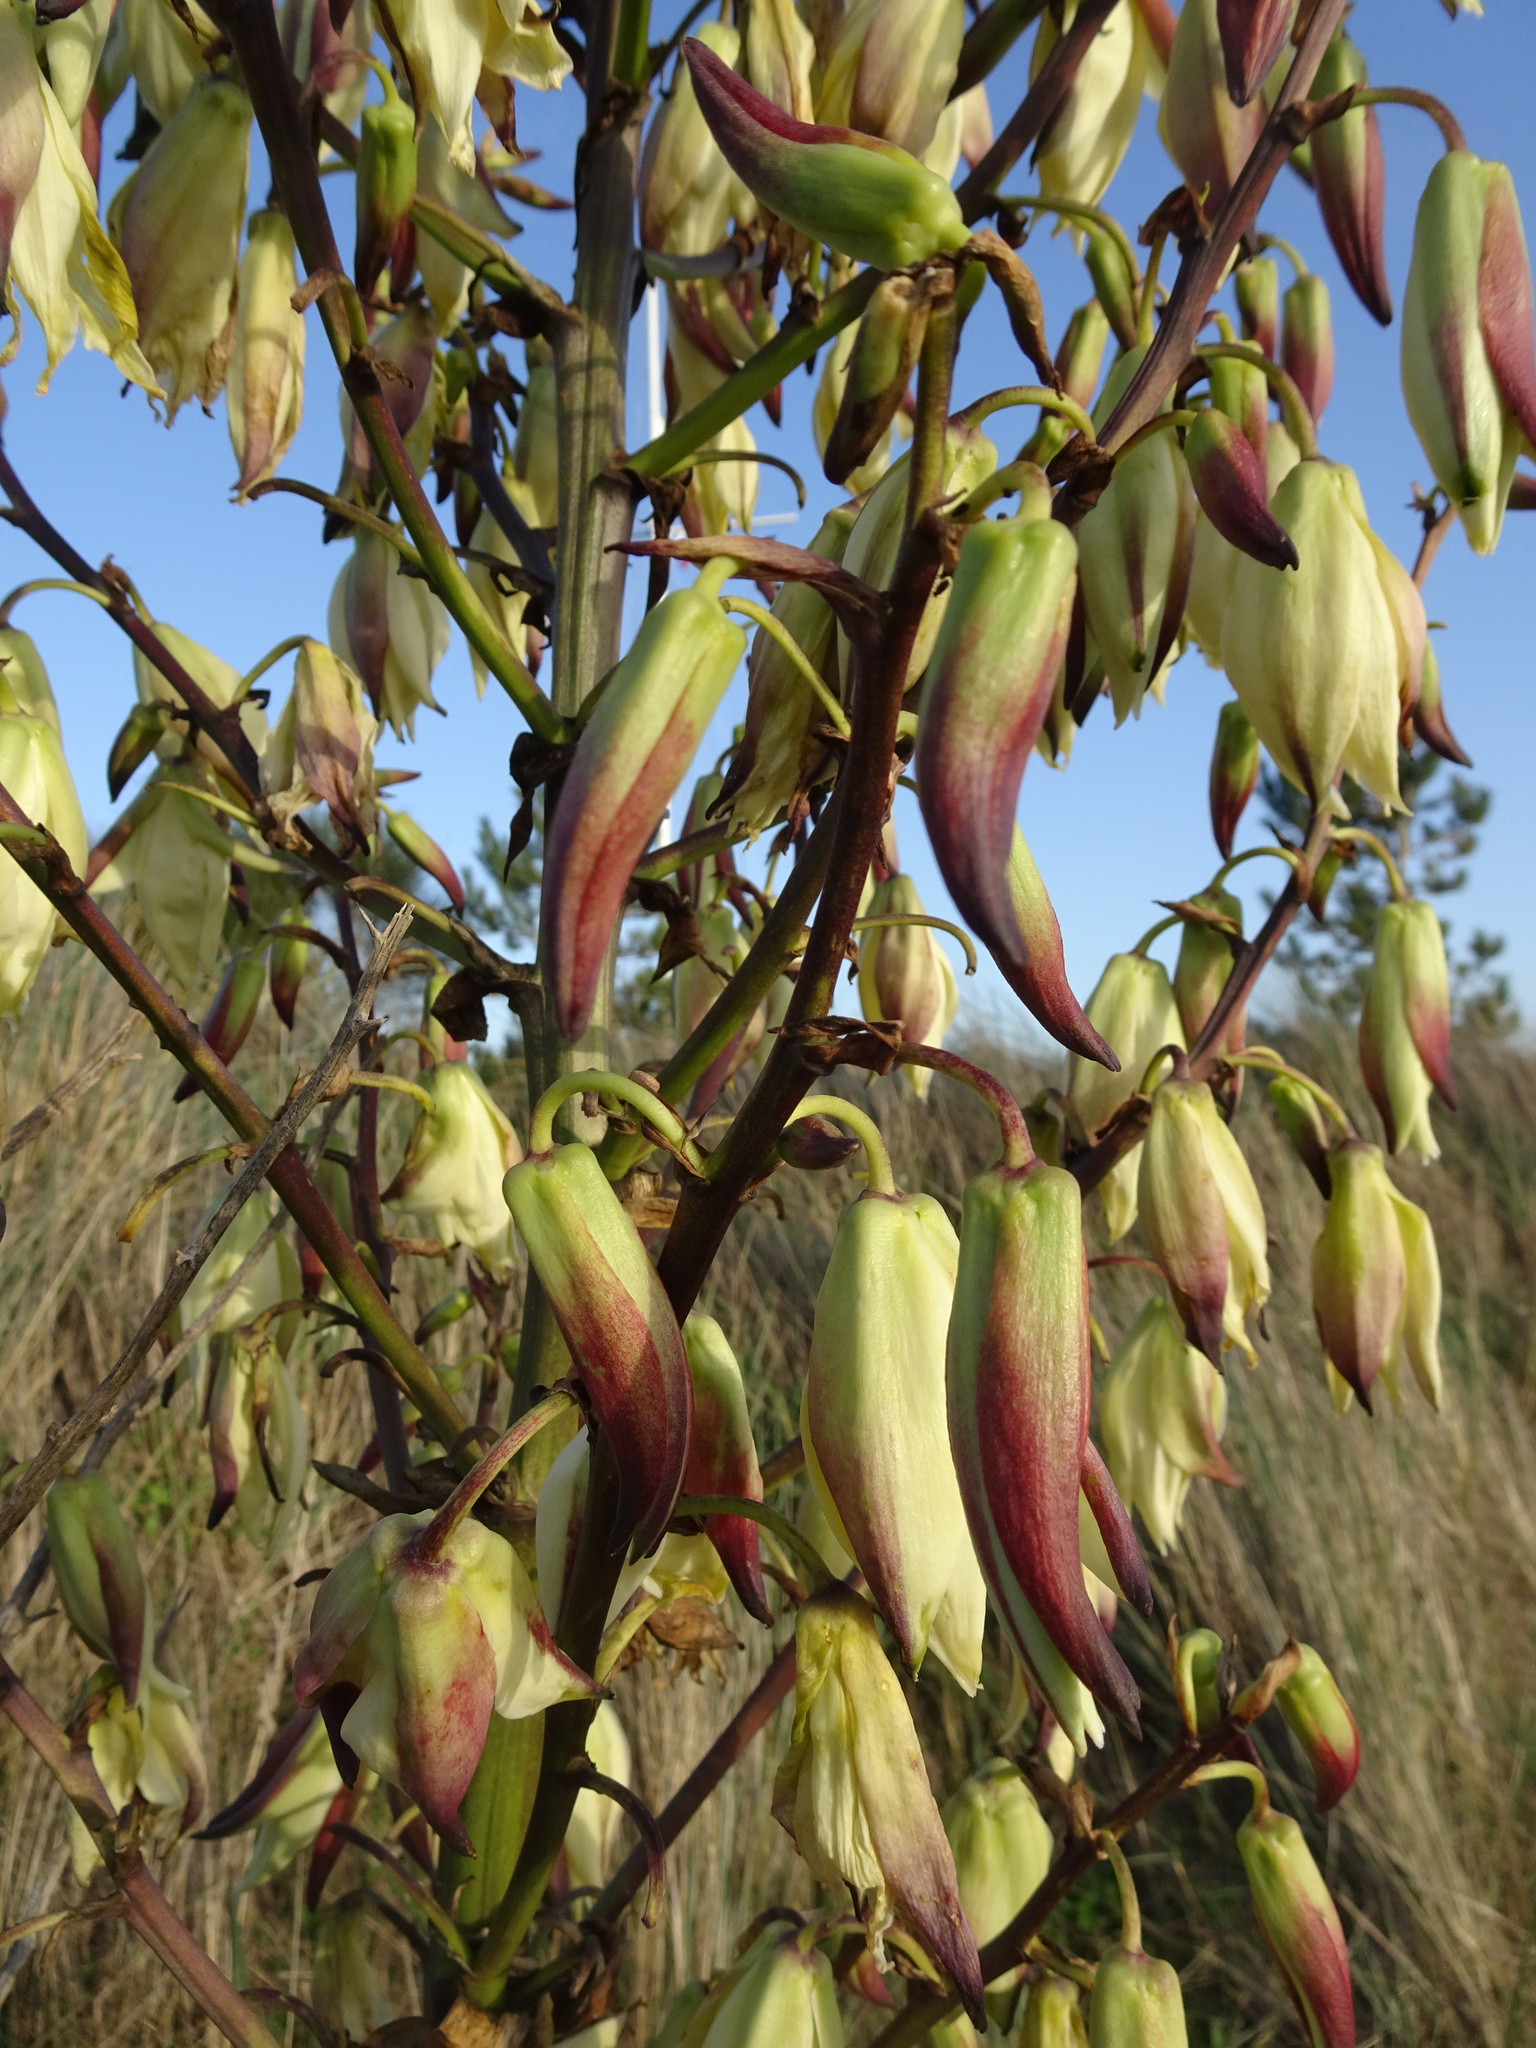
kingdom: Plantae
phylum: Tracheophyta
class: Liliopsida
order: Asparagales
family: Asparagaceae
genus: Yucca
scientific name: Yucca gloriosa
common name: Spanish-dagger
